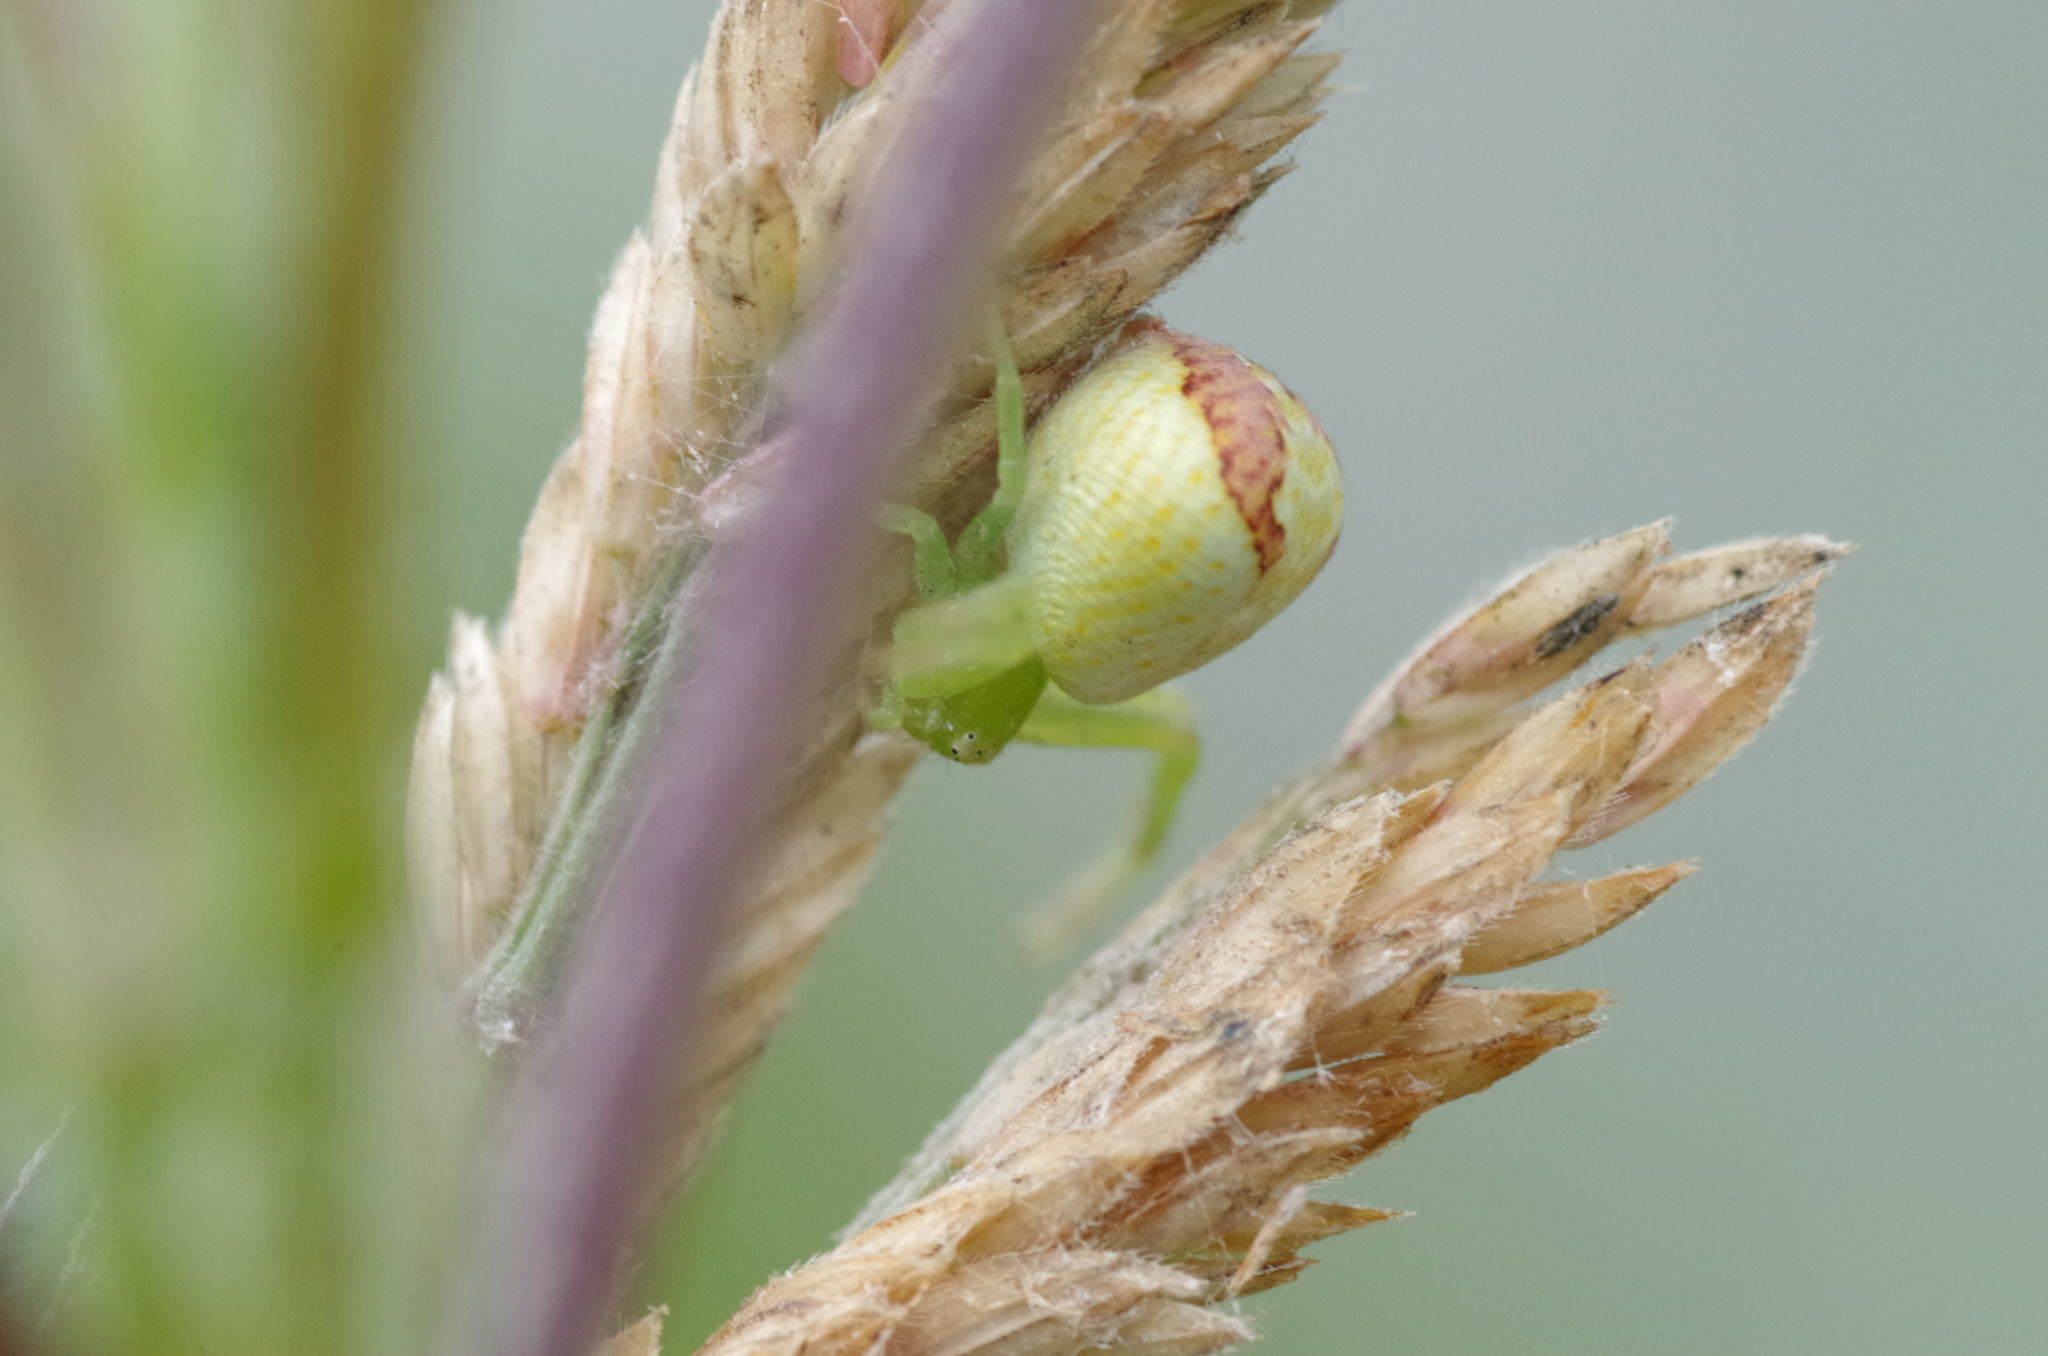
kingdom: Animalia
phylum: Arthropoda
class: Arachnida
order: Araneae
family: Thomisidae
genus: Ebrechtella
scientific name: Ebrechtella tricuspidata
